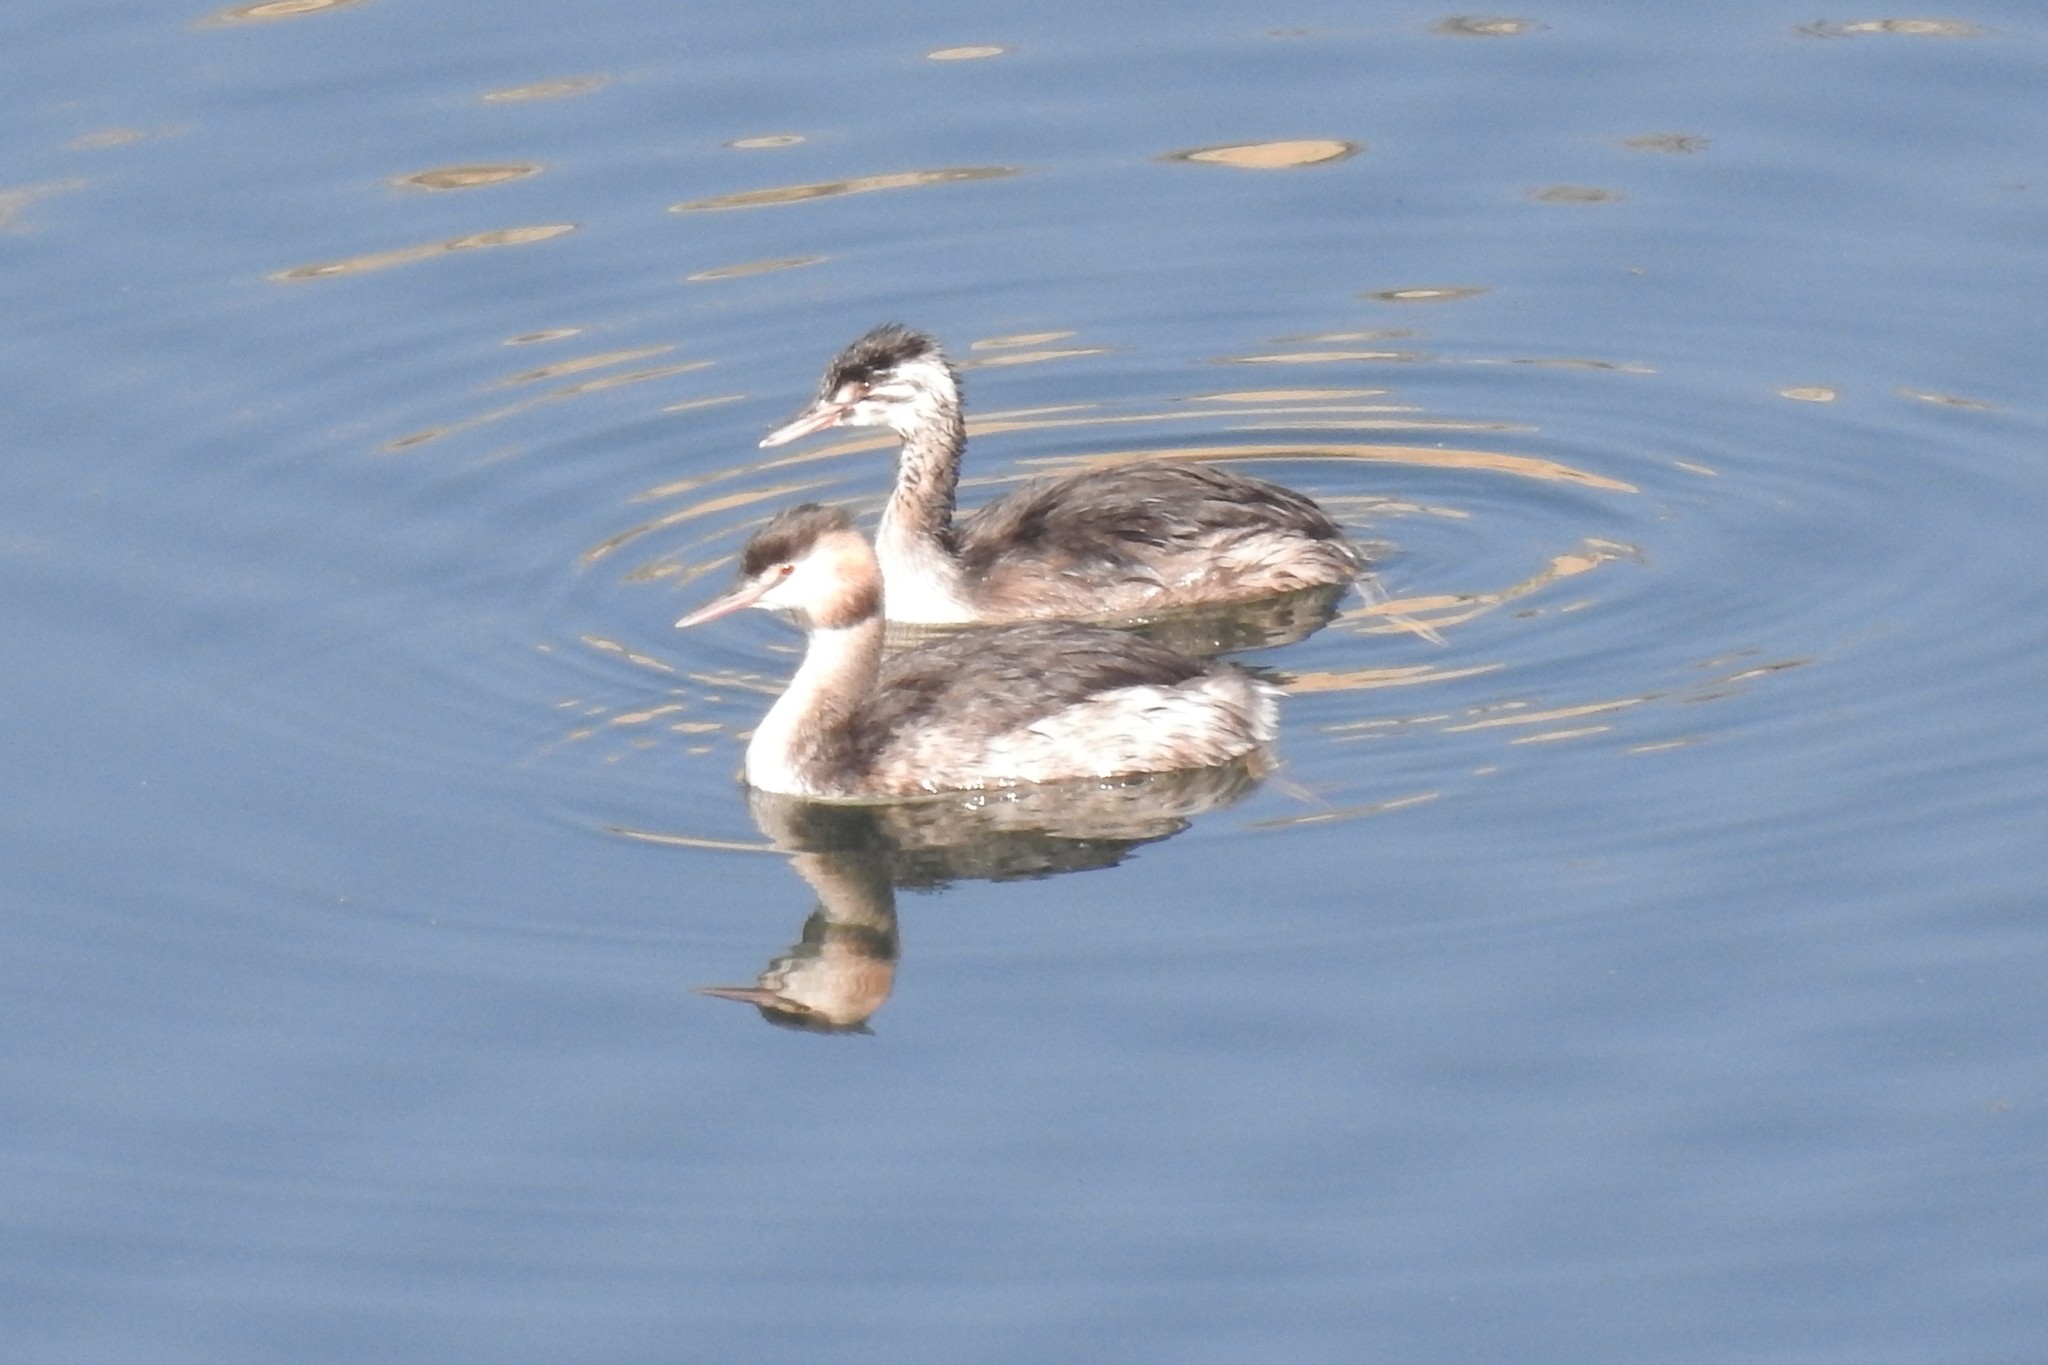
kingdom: Animalia
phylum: Chordata
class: Aves
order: Podicipediformes
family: Podicipedidae
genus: Podiceps
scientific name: Podiceps cristatus
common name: Great crested grebe
